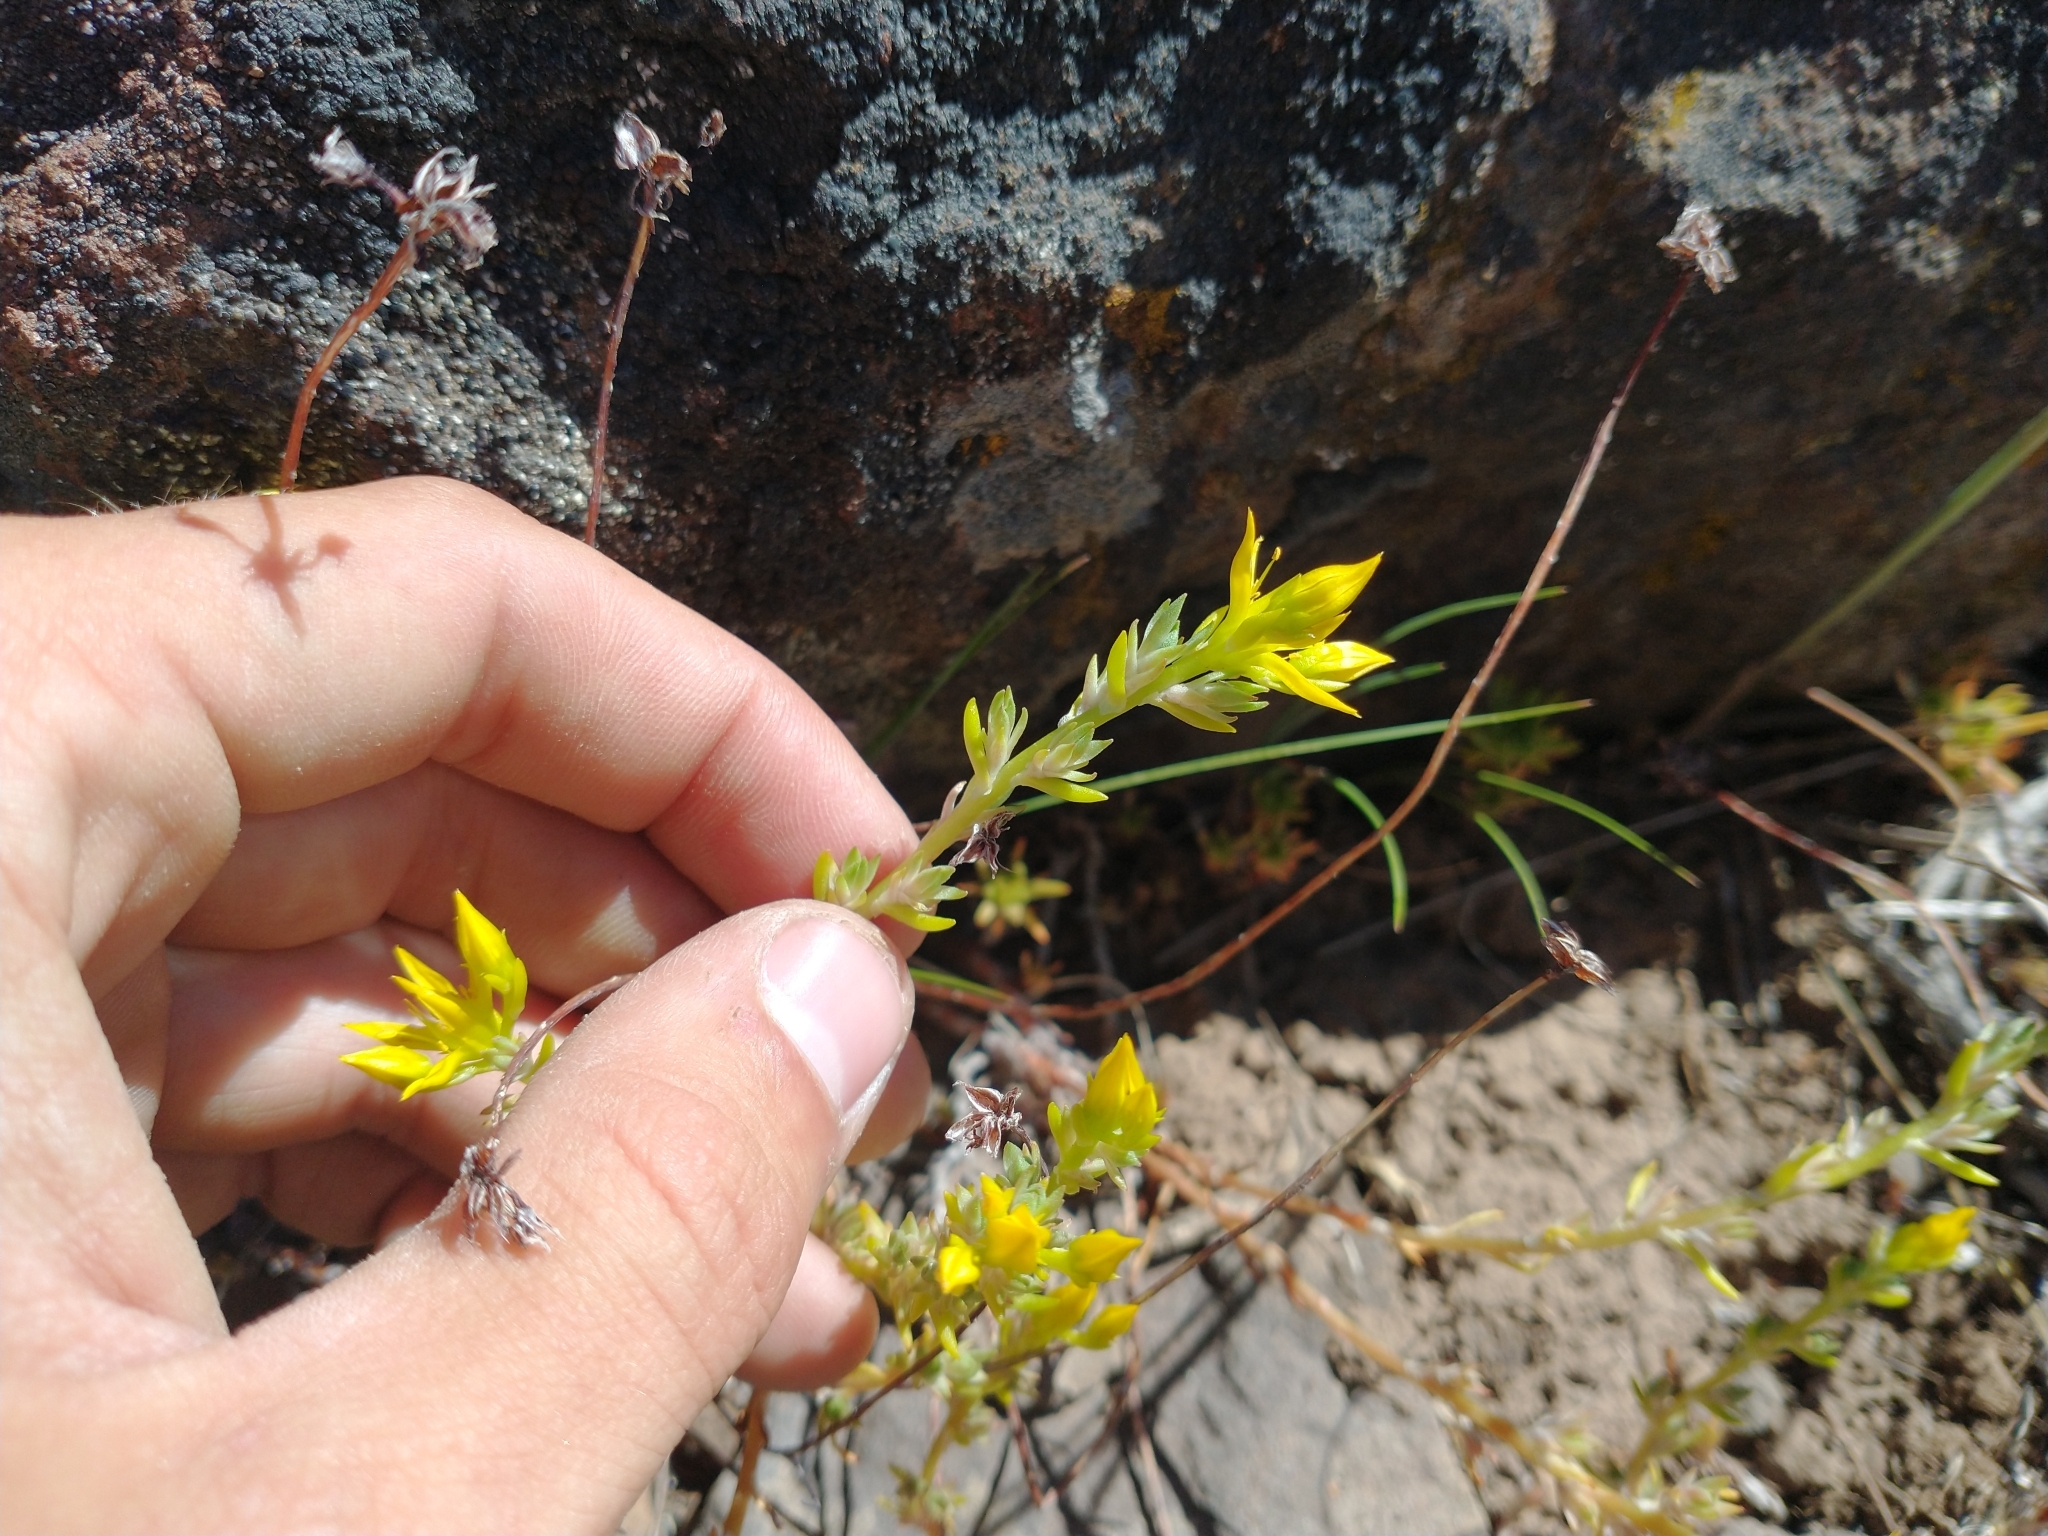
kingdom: Plantae
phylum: Tracheophyta
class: Magnoliopsida
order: Saxifragales
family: Crassulaceae
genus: Sedum
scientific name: Sedum stenopetalum
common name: Narrow-petaled stonecrop
